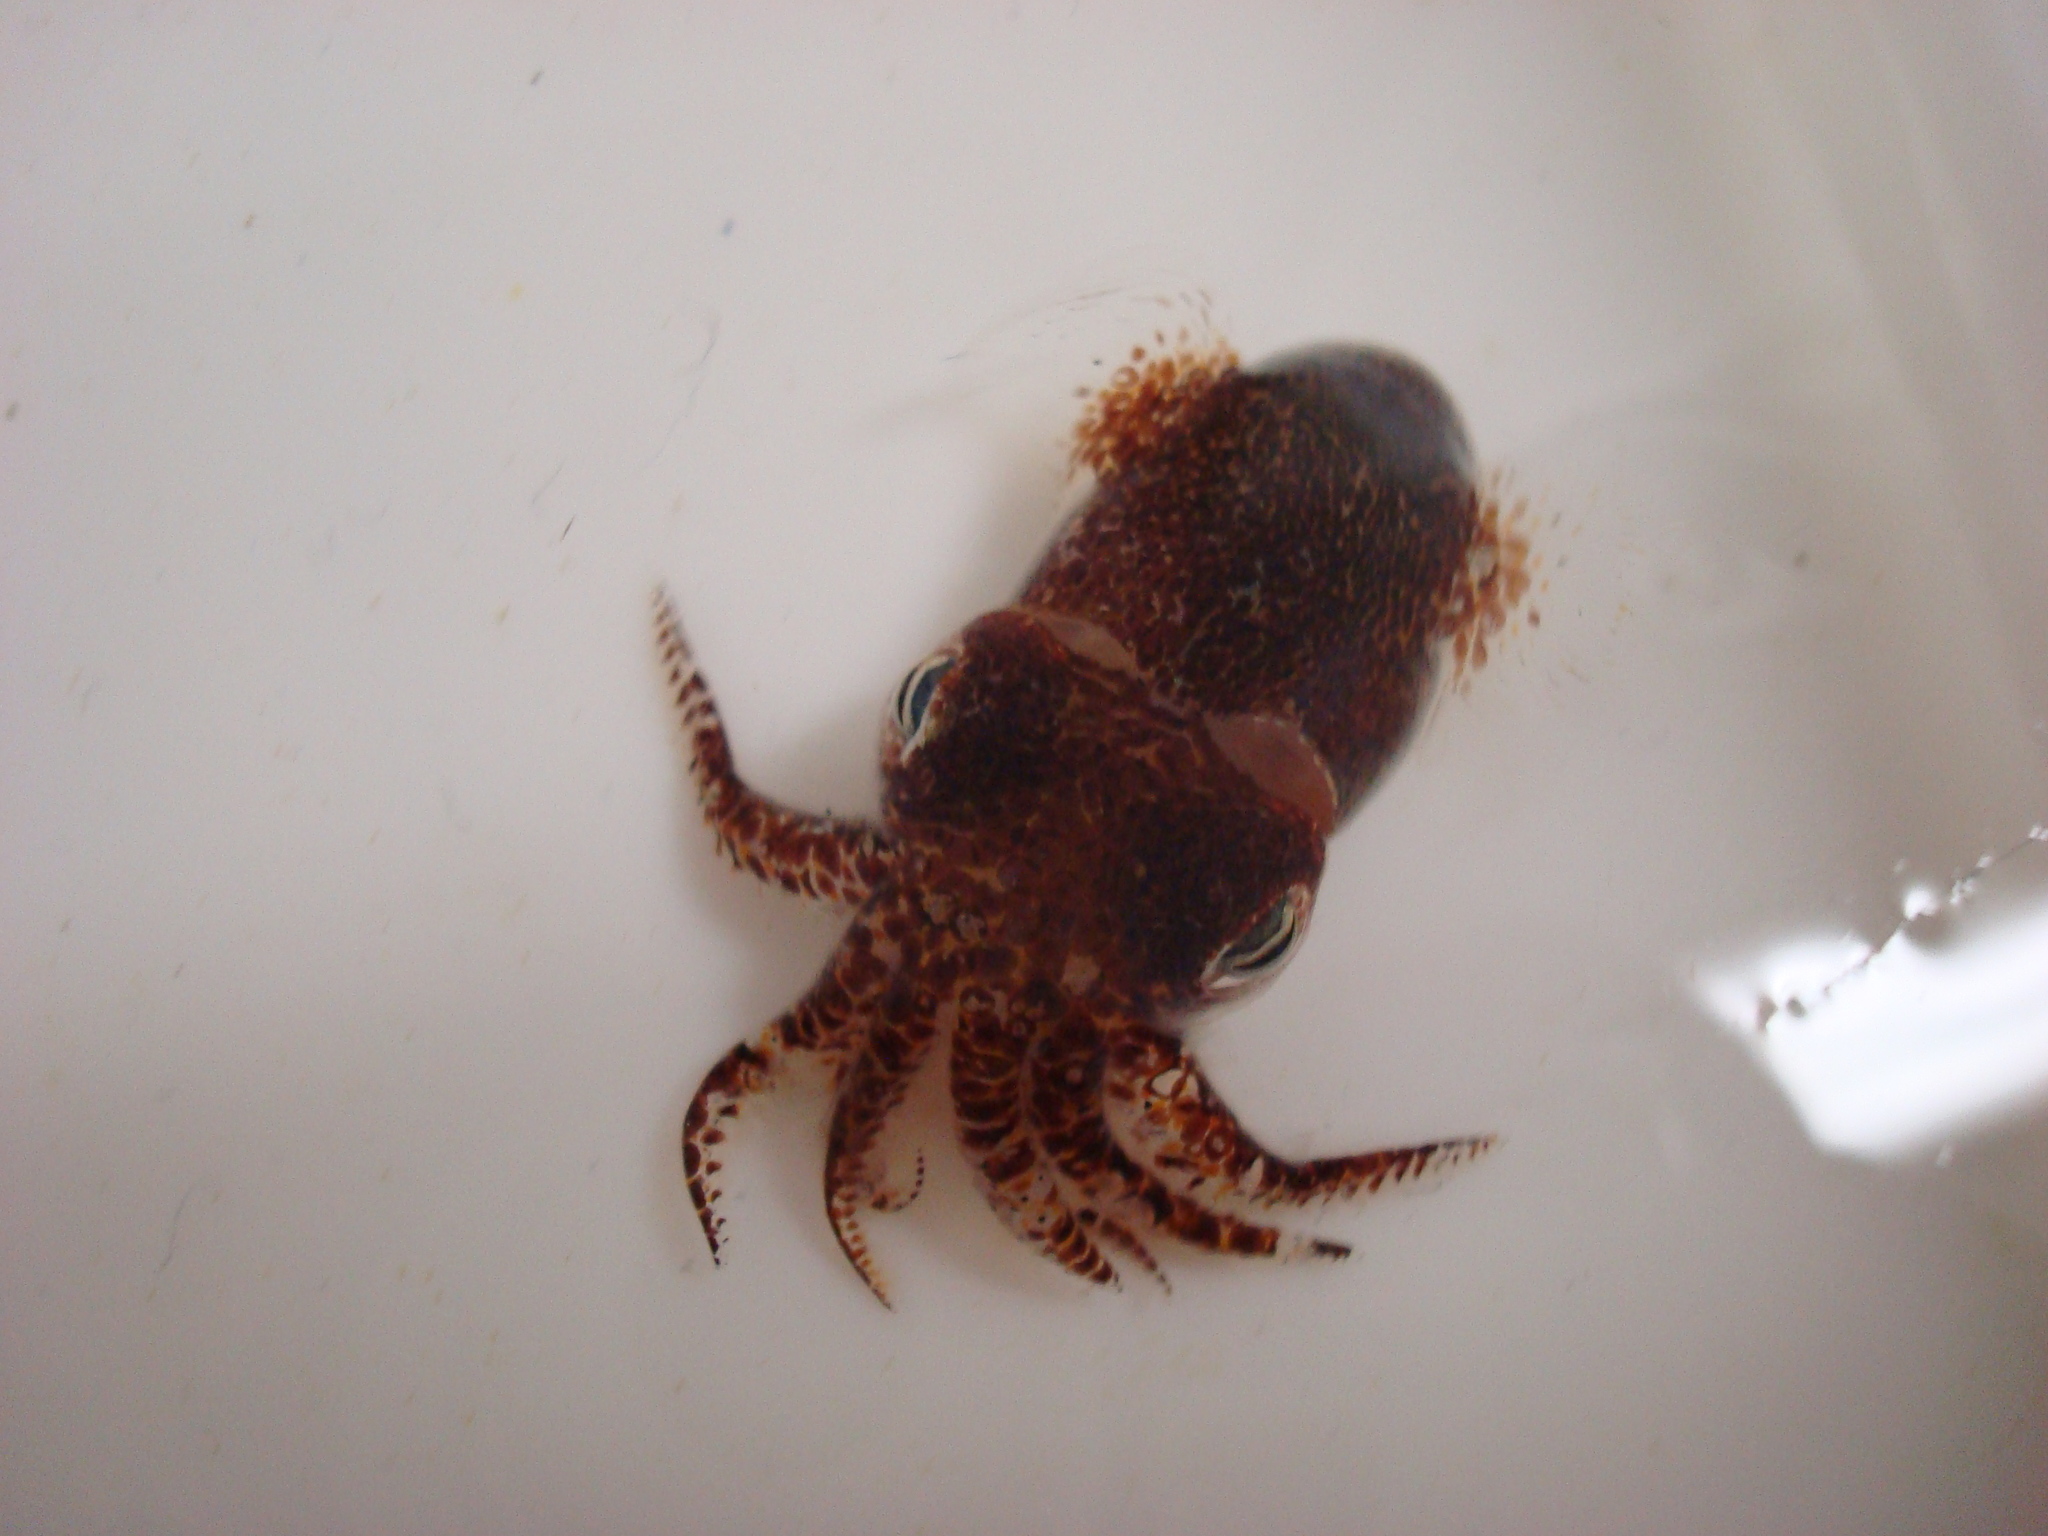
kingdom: Animalia
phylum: Mollusca
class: Cephalopoda
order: Sepiida
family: Sepiolidae
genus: Sepiola
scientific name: Sepiola atlantica
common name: Atlantic bobtail squid
